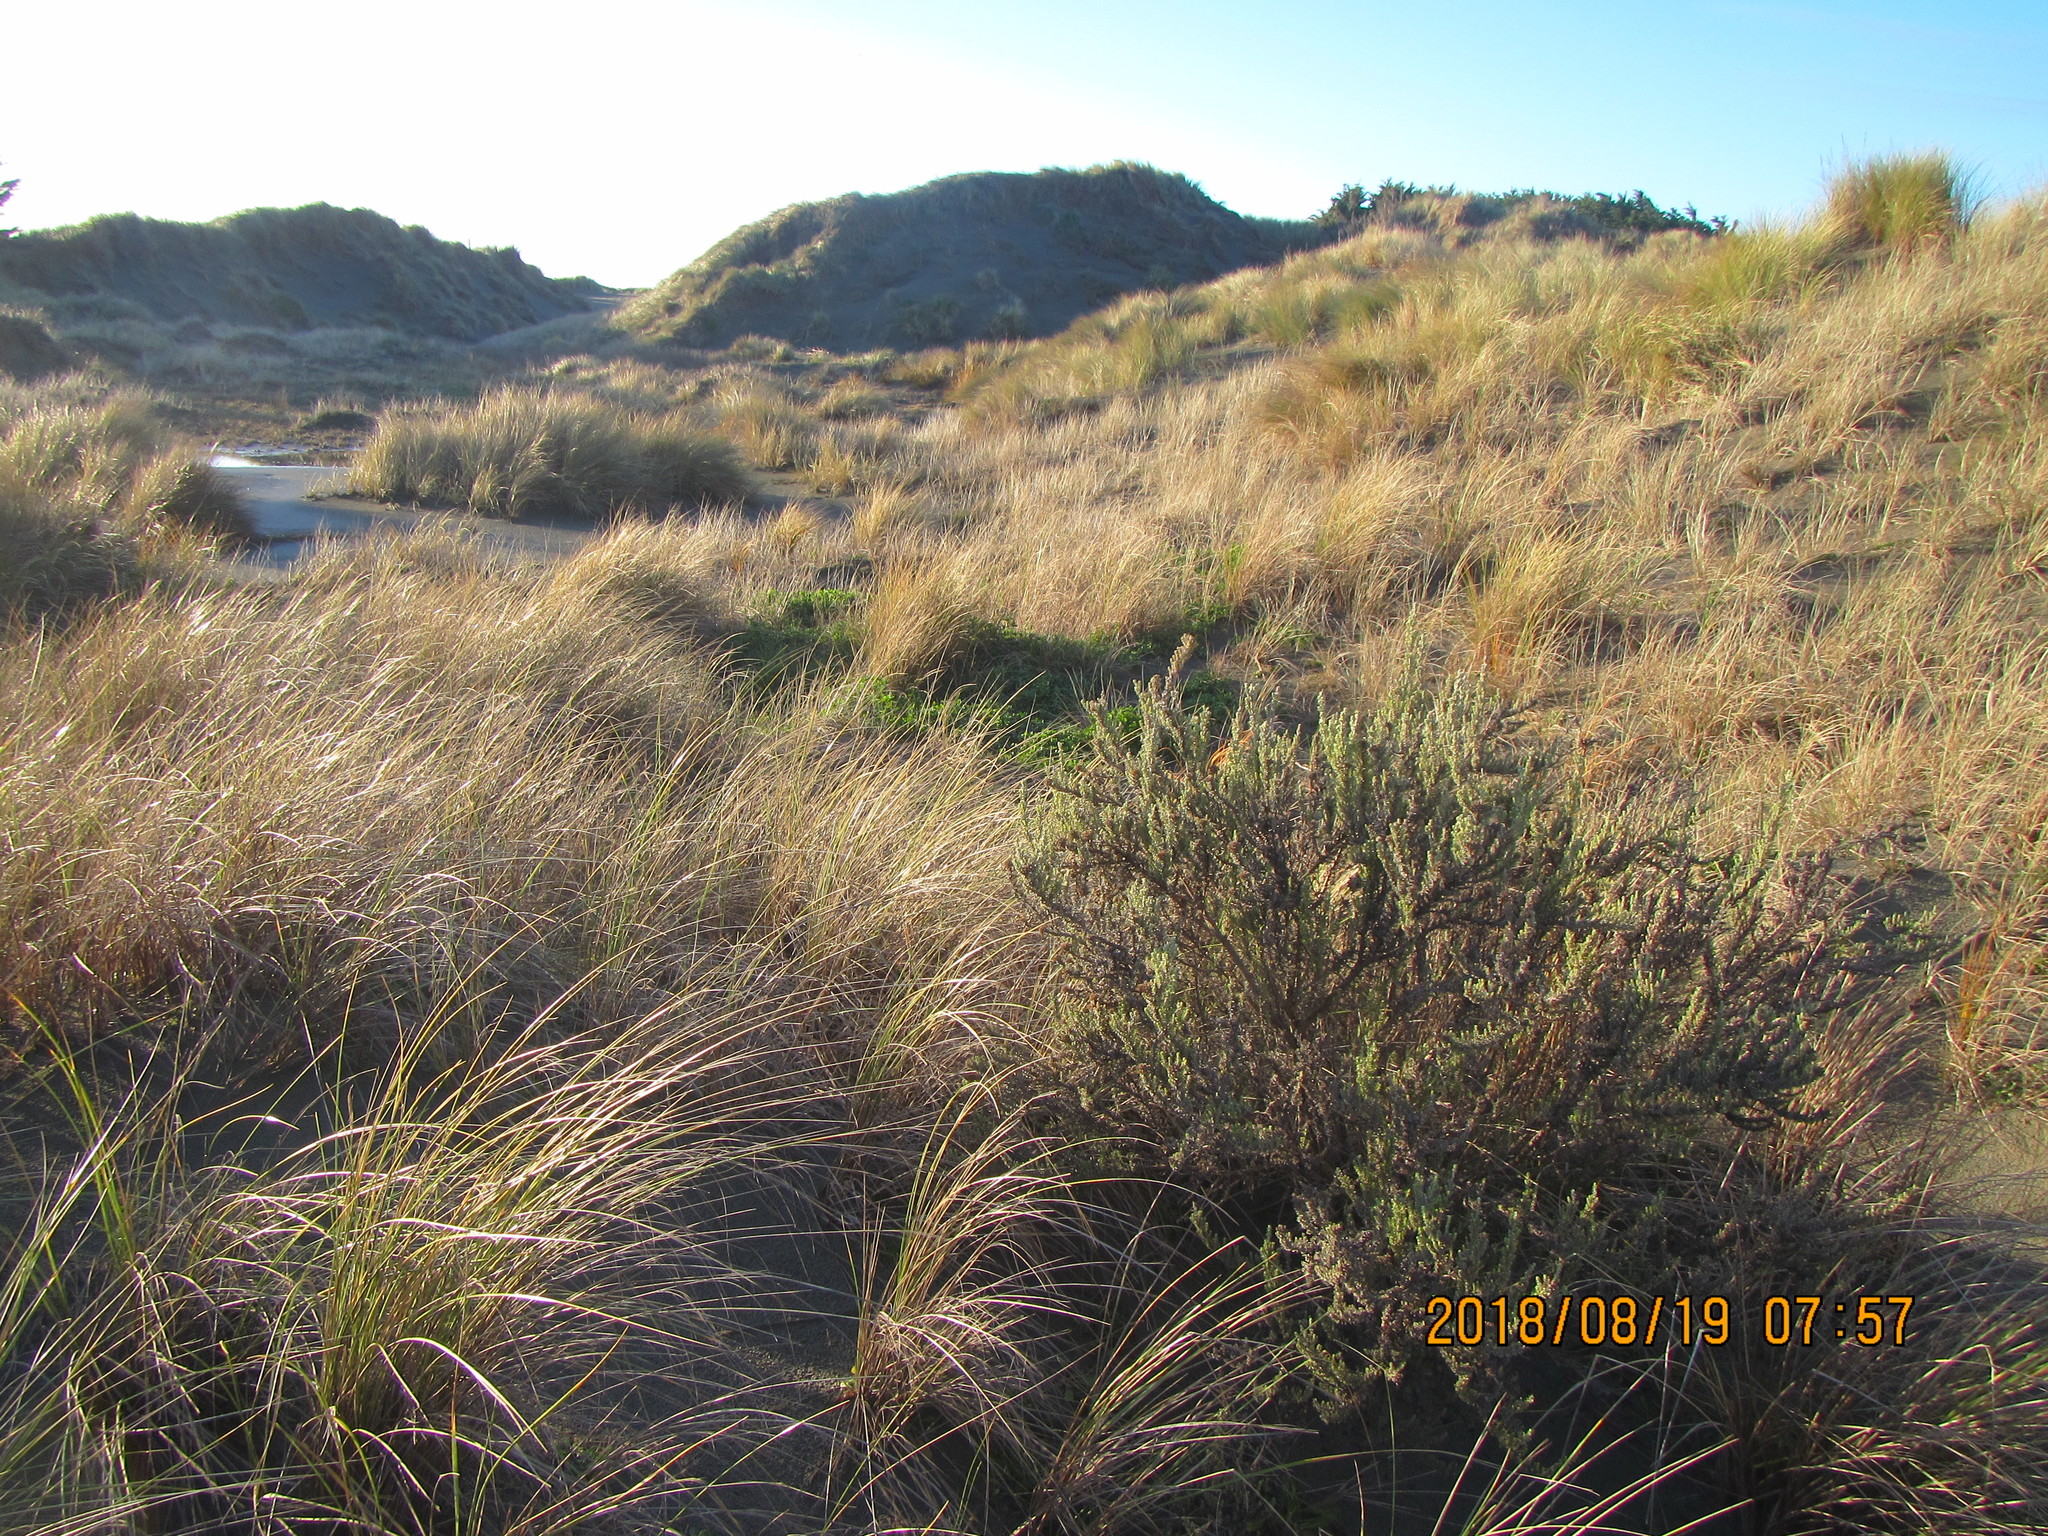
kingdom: Plantae
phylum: Tracheophyta
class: Magnoliopsida
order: Asterales
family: Asteraceae
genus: Ozothamnus
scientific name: Ozothamnus leptophyllus
